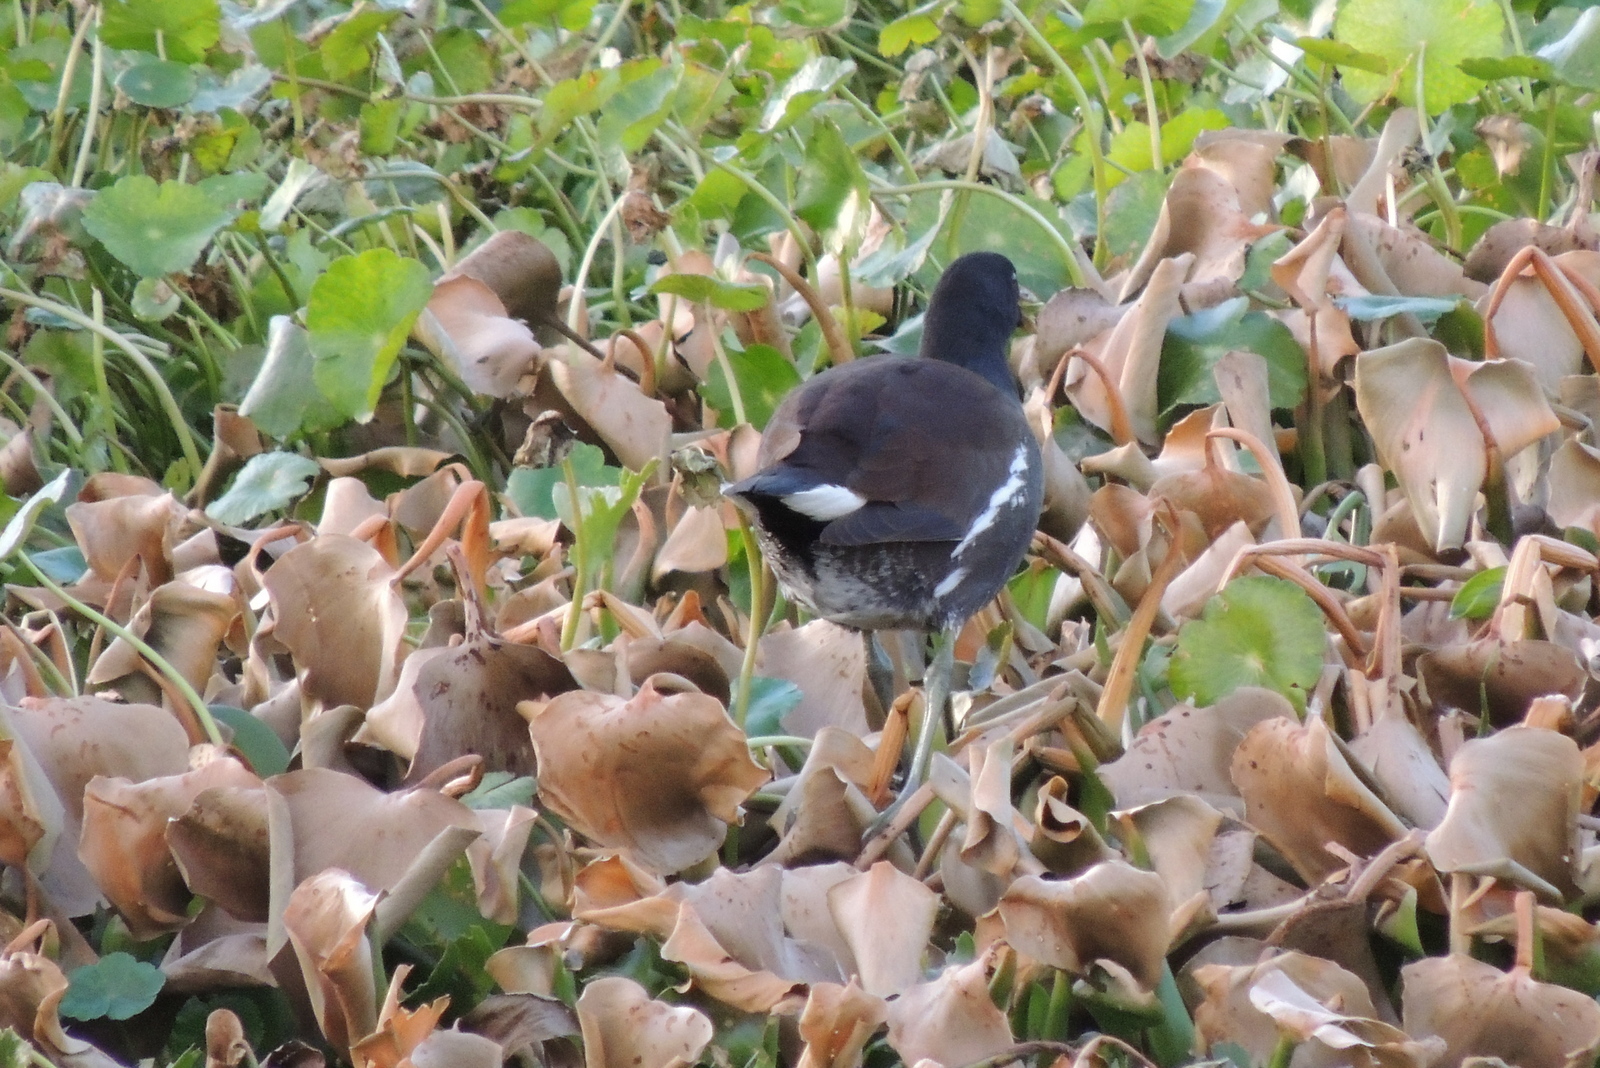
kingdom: Animalia
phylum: Chordata
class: Aves
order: Gruiformes
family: Rallidae
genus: Gallinula
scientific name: Gallinula chloropus
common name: Common moorhen
